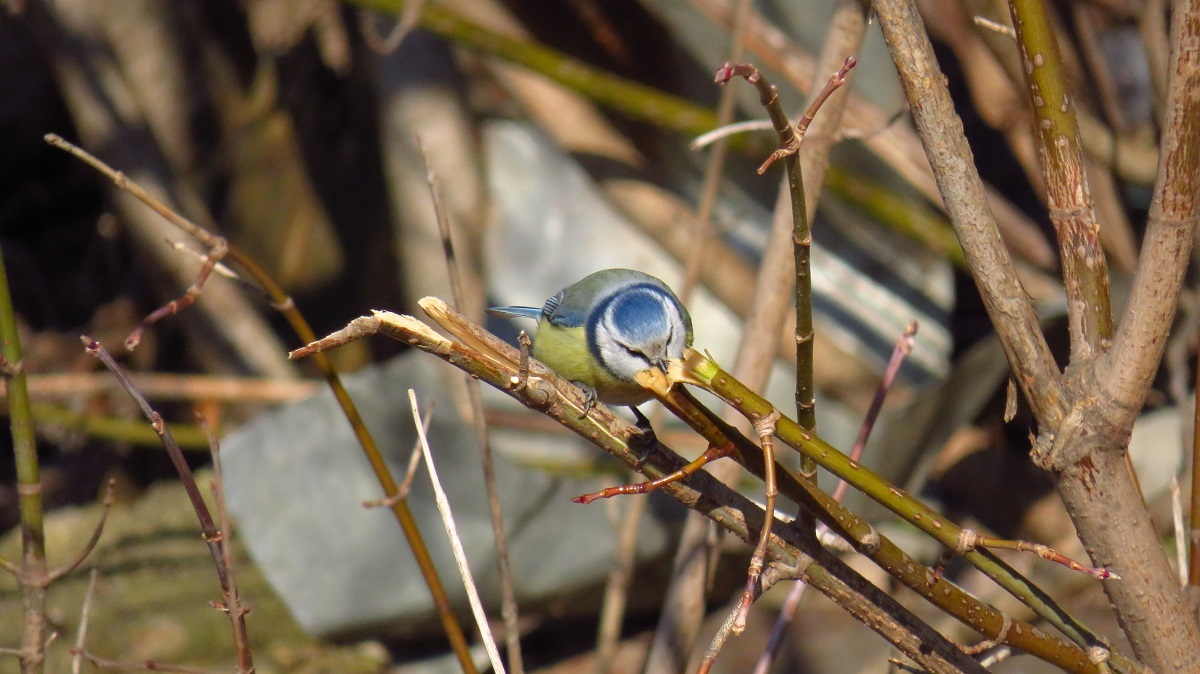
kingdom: Animalia
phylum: Chordata
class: Aves
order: Passeriformes
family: Paridae
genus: Cyanistes
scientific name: Cyanistes caeruleus
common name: Eurasian blue tit
